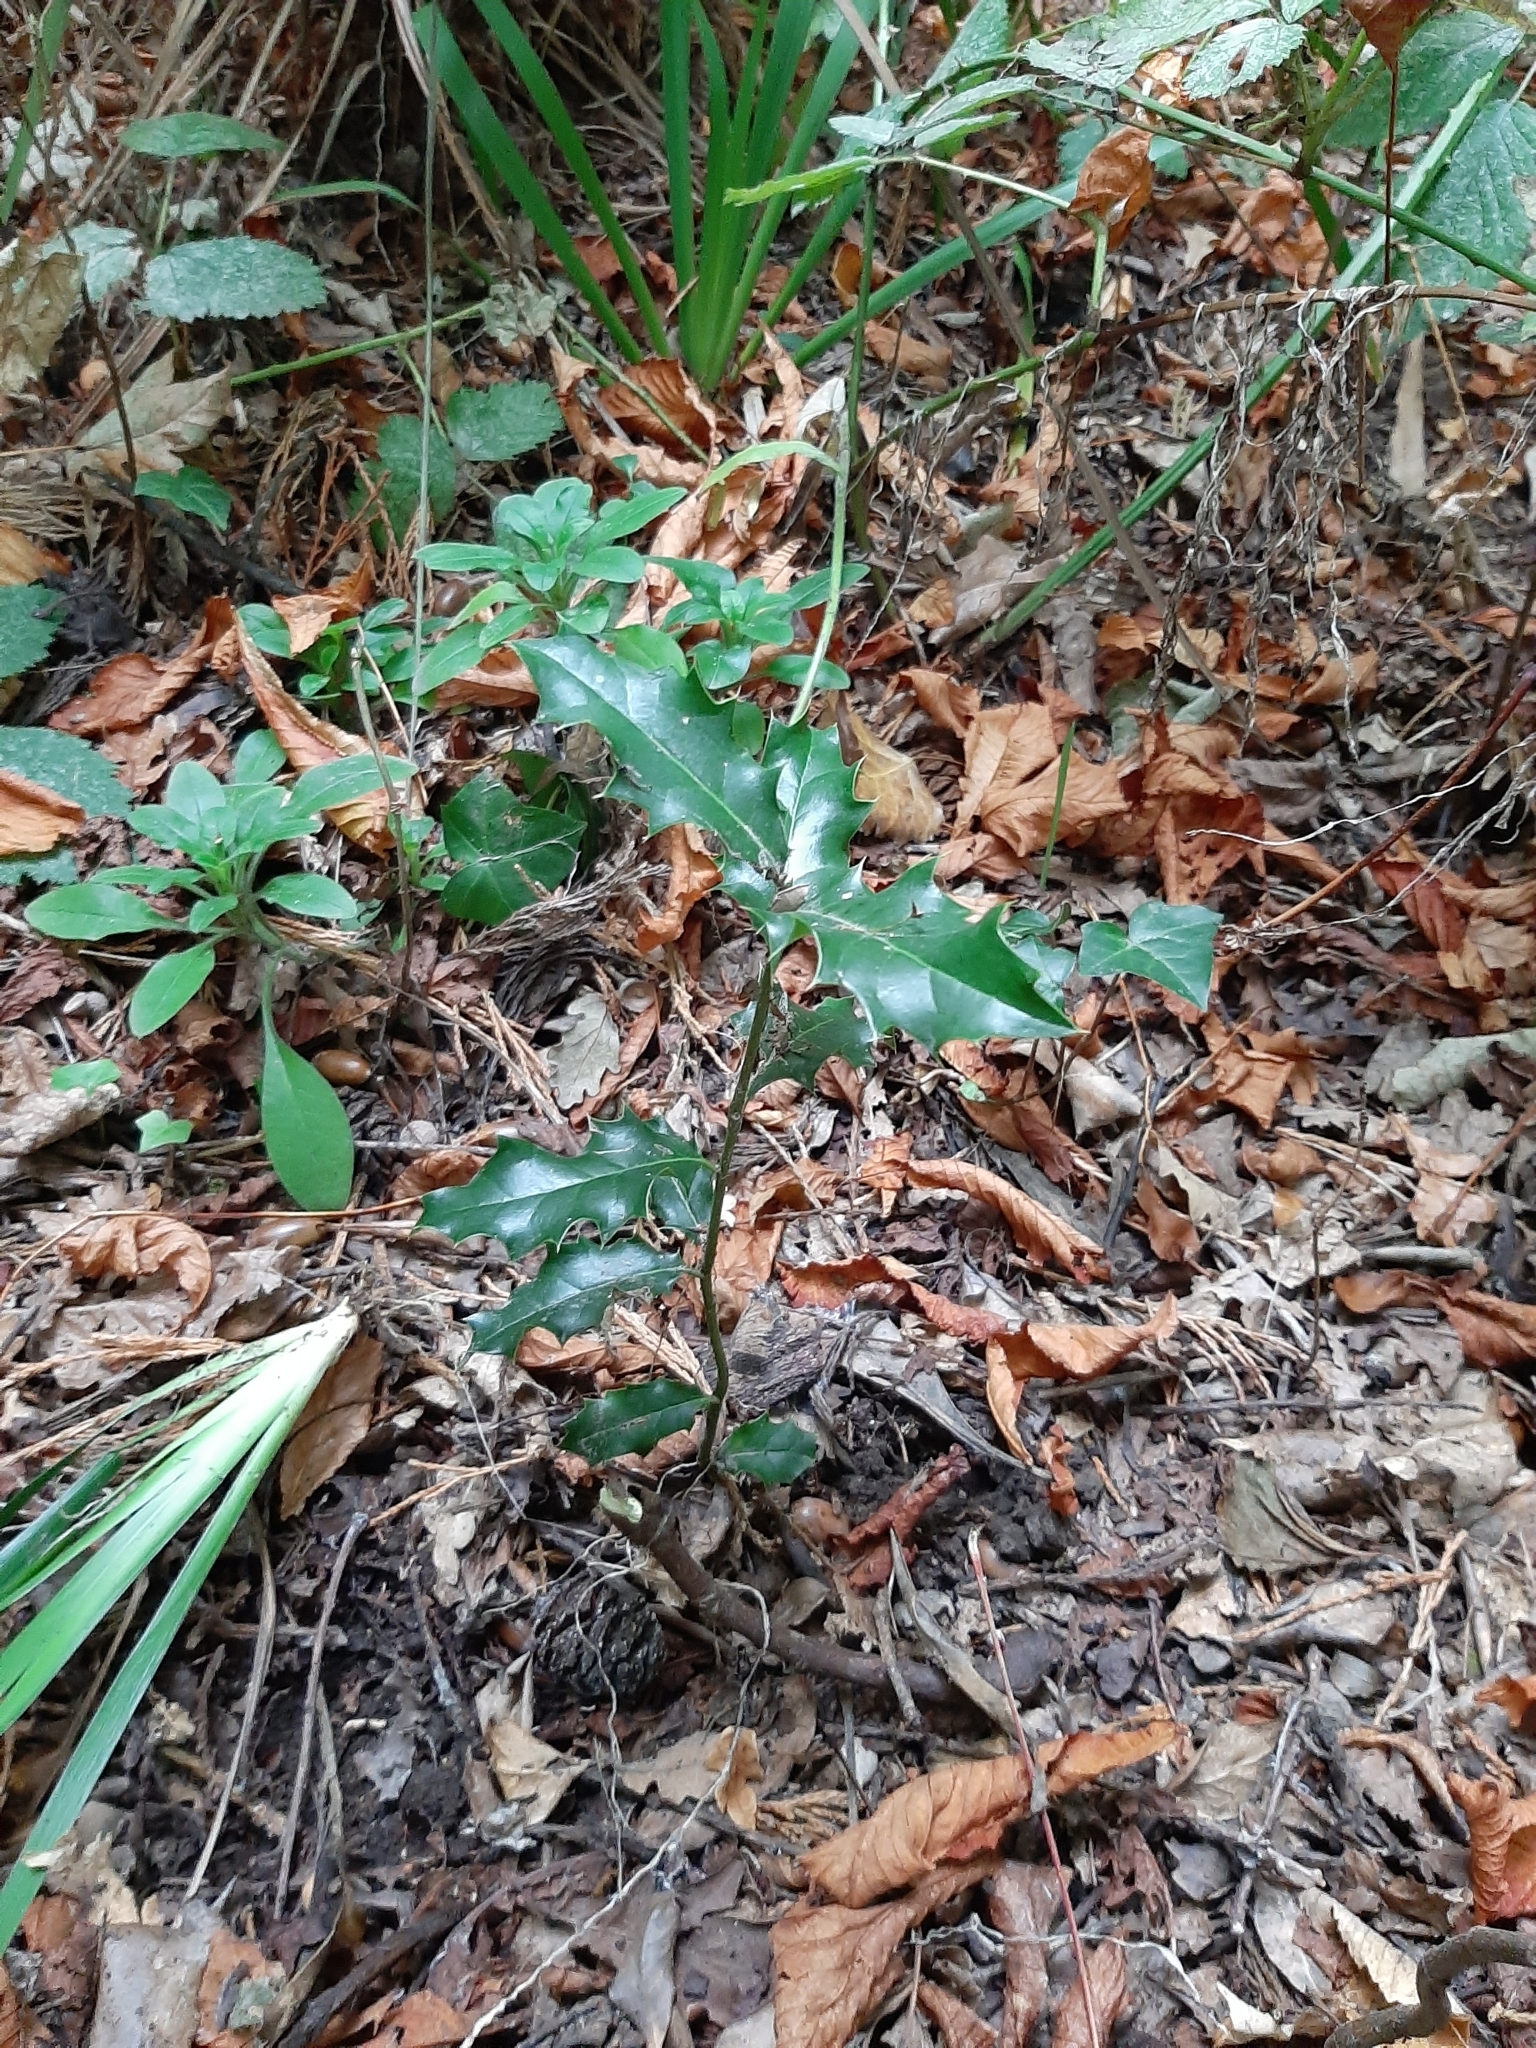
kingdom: Plantae
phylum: Tracheophyta
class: Magnoliopsida
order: Aquifoliales
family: Aquifoliaceae
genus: Ilex
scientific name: Ilex aquifolium
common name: English holly
